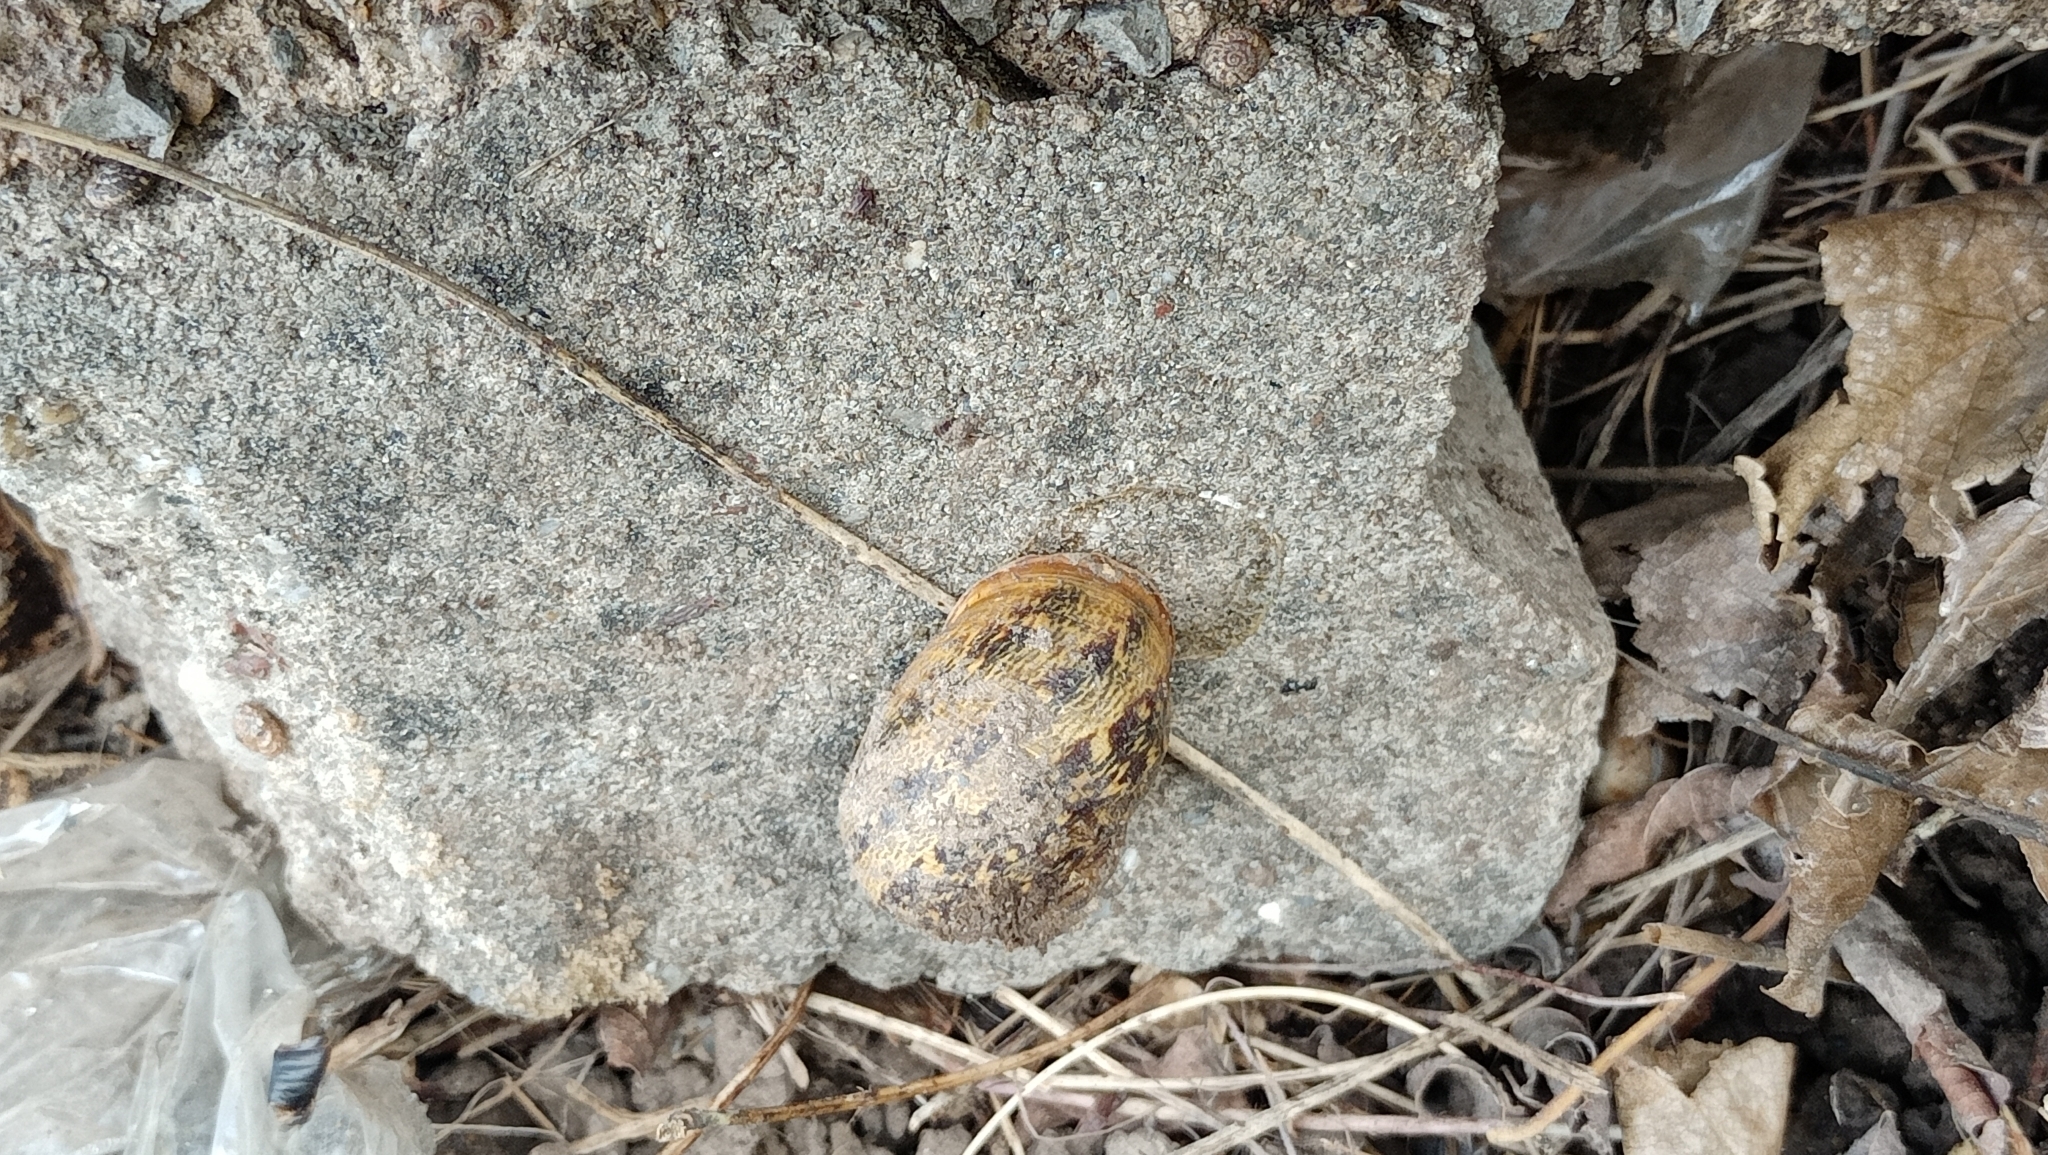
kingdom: Animalia
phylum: Mollusca
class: Gastropoda
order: Stylommatophora
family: Helicidae
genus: Cornu
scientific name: Cornu aspersum
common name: Brown garden snail
